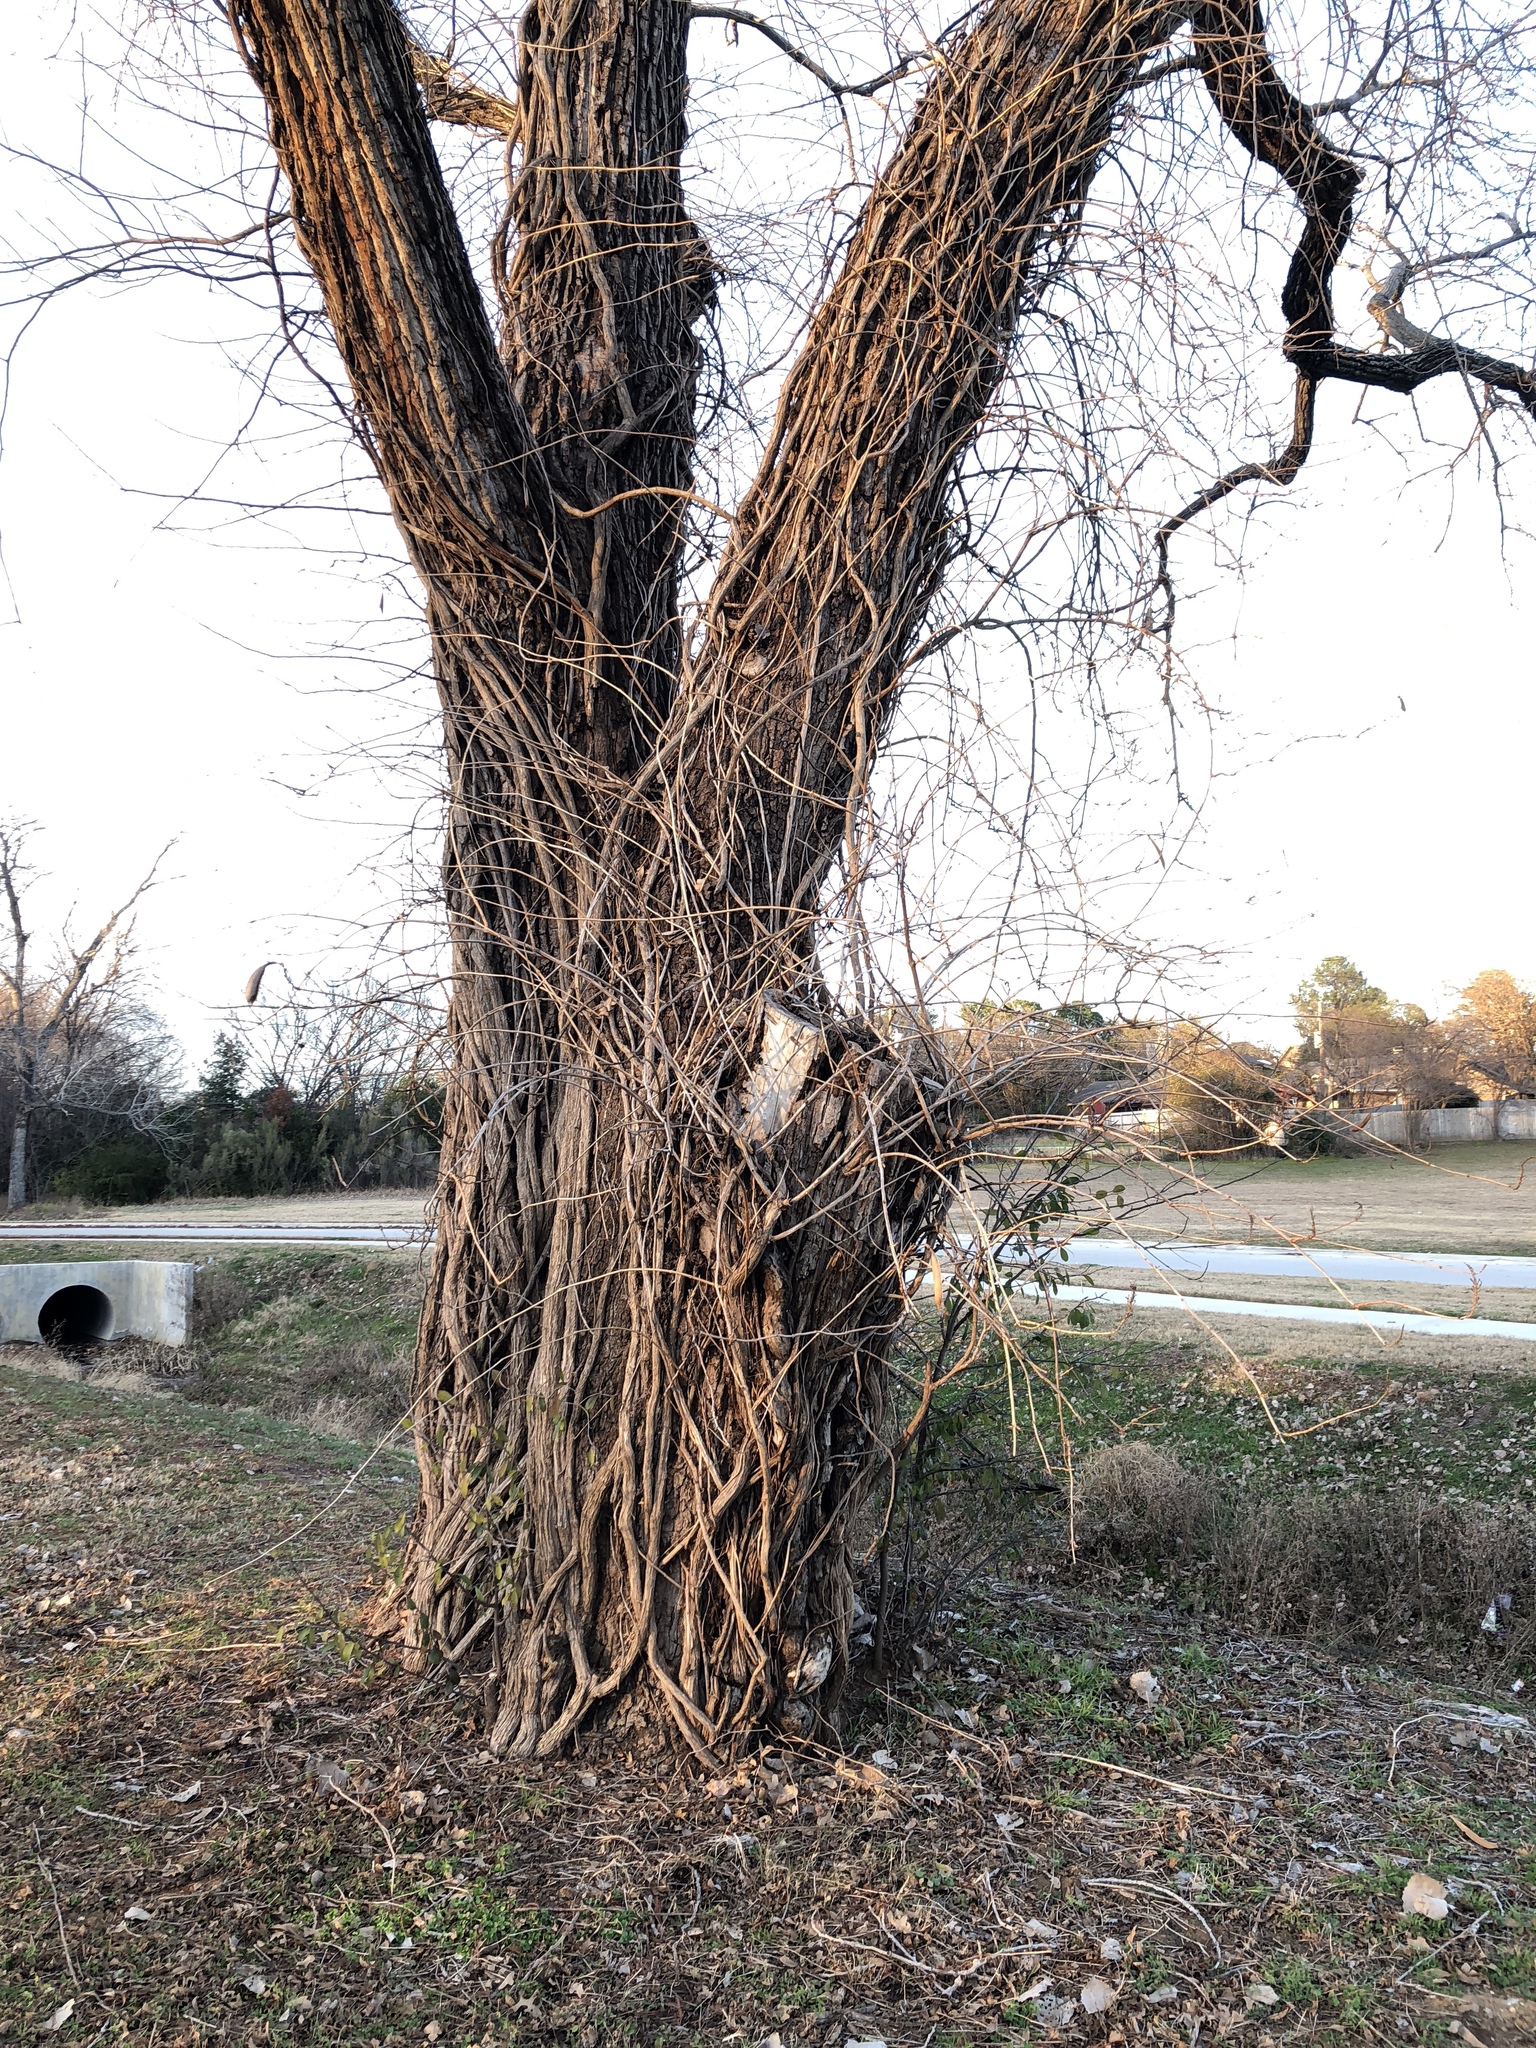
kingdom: Plantae
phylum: Tracheophyta
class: Magnoliopsida
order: Lamiales
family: Bignoniaceae
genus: Campsis
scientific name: Campsis radicans
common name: Trumpet-creeper
